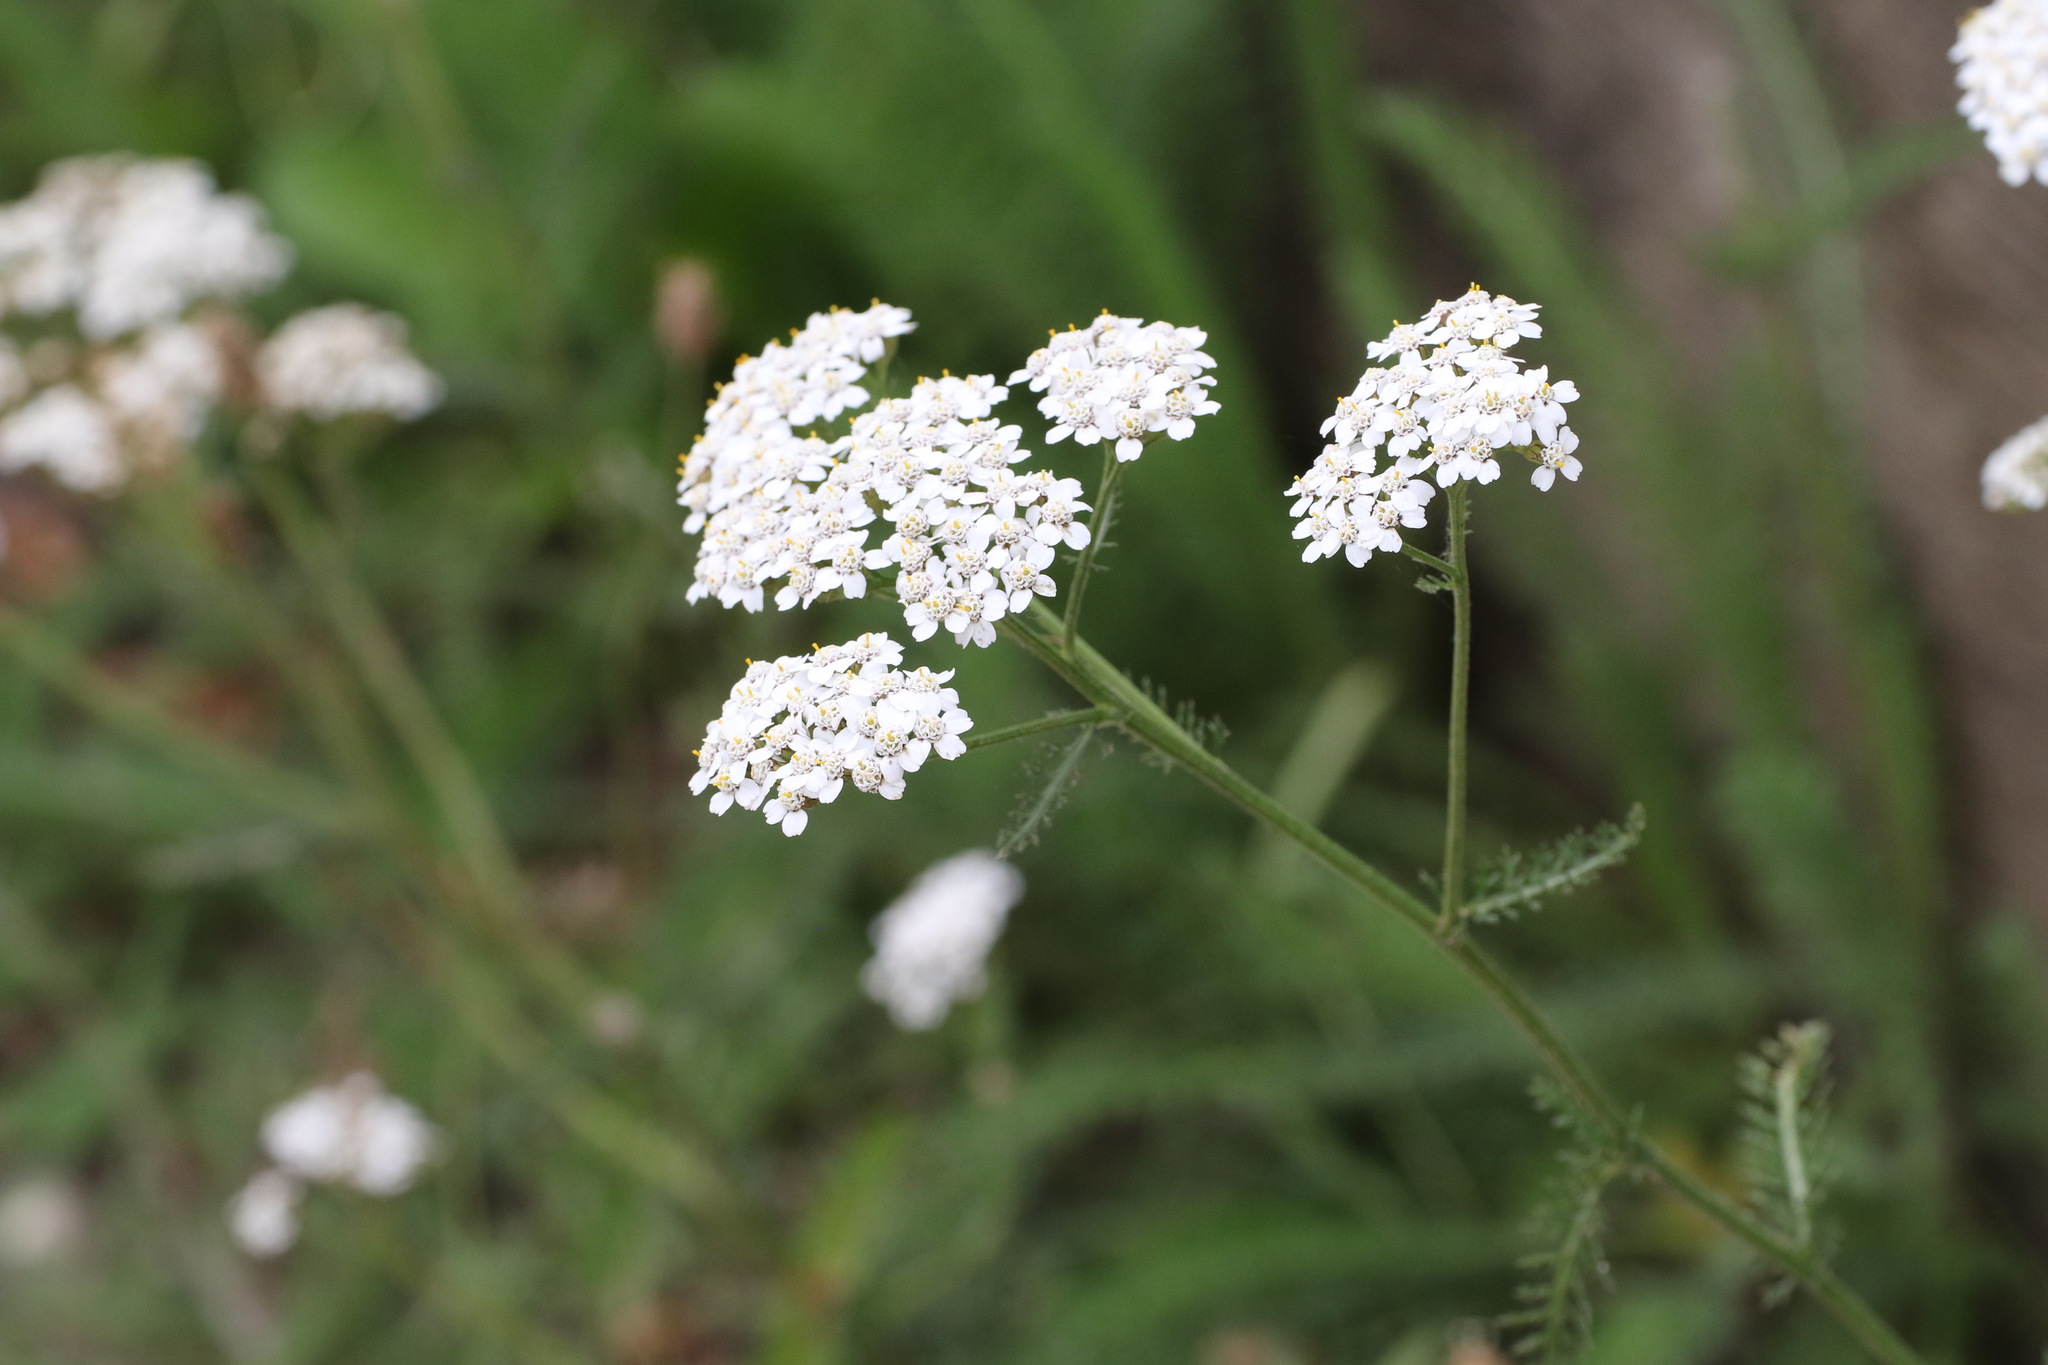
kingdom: Plantae
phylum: Tracheophyta
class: Magnoliopsida
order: Asterales
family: Asteraceae
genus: Achillea
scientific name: Achillea millefolium
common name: Yarrow
